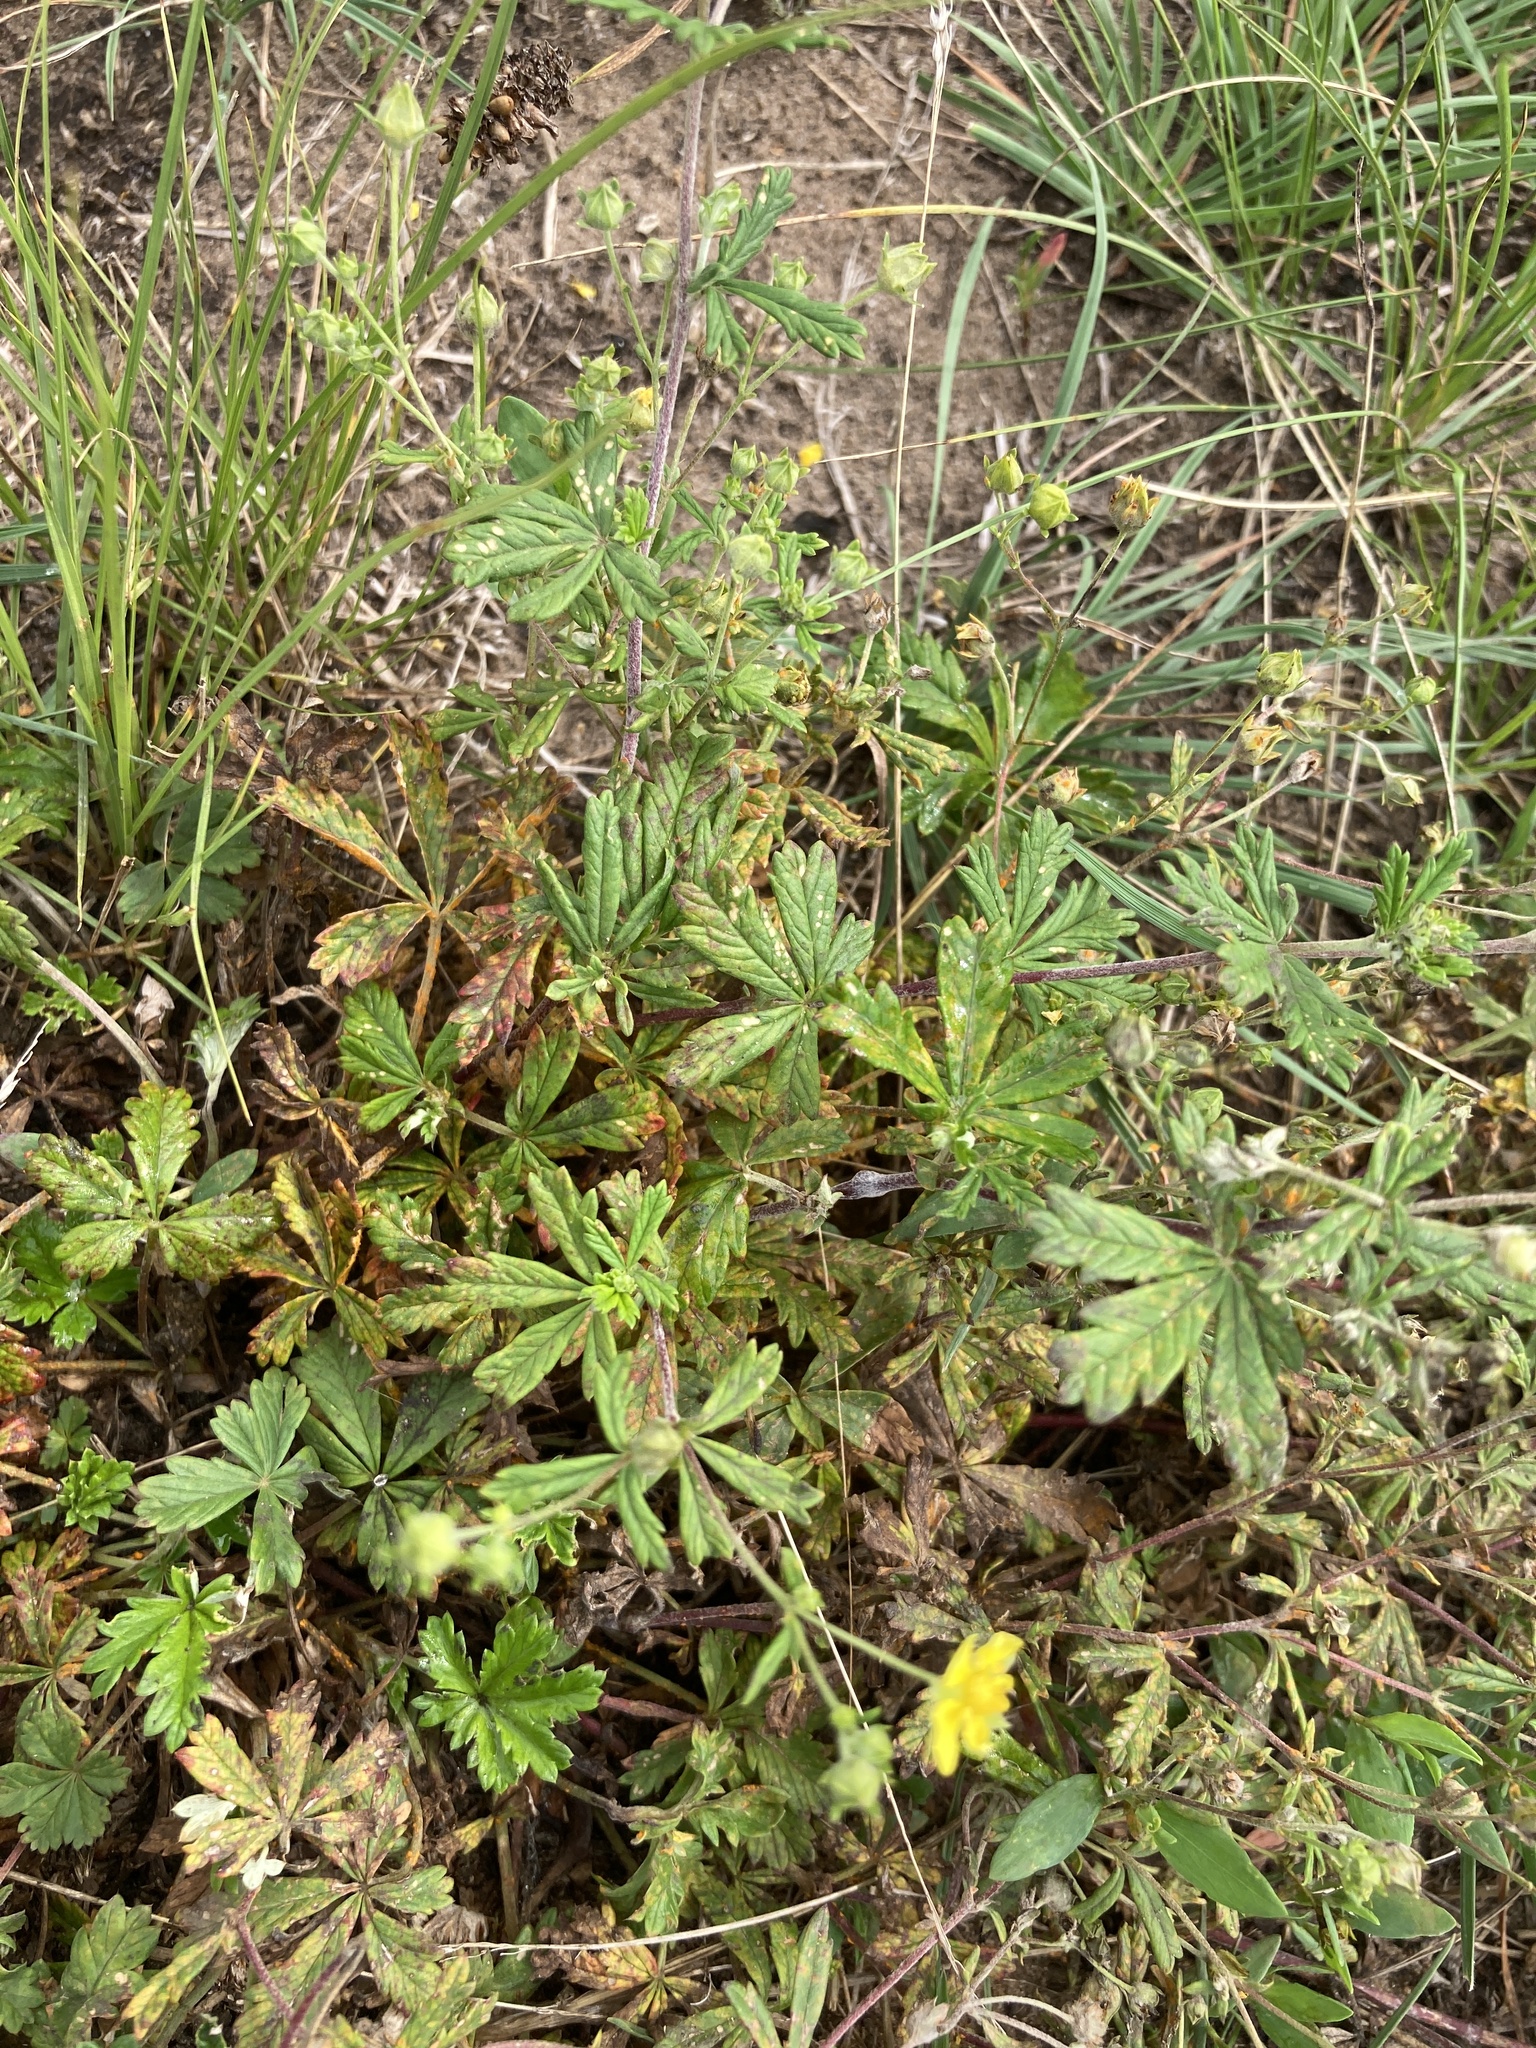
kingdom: Plantae
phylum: Tracheophyta
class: Magnoliopsida
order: Rosales
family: Rosaceae
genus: Potentilla
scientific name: Potentilla argentea
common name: Hoary cinquefoil
